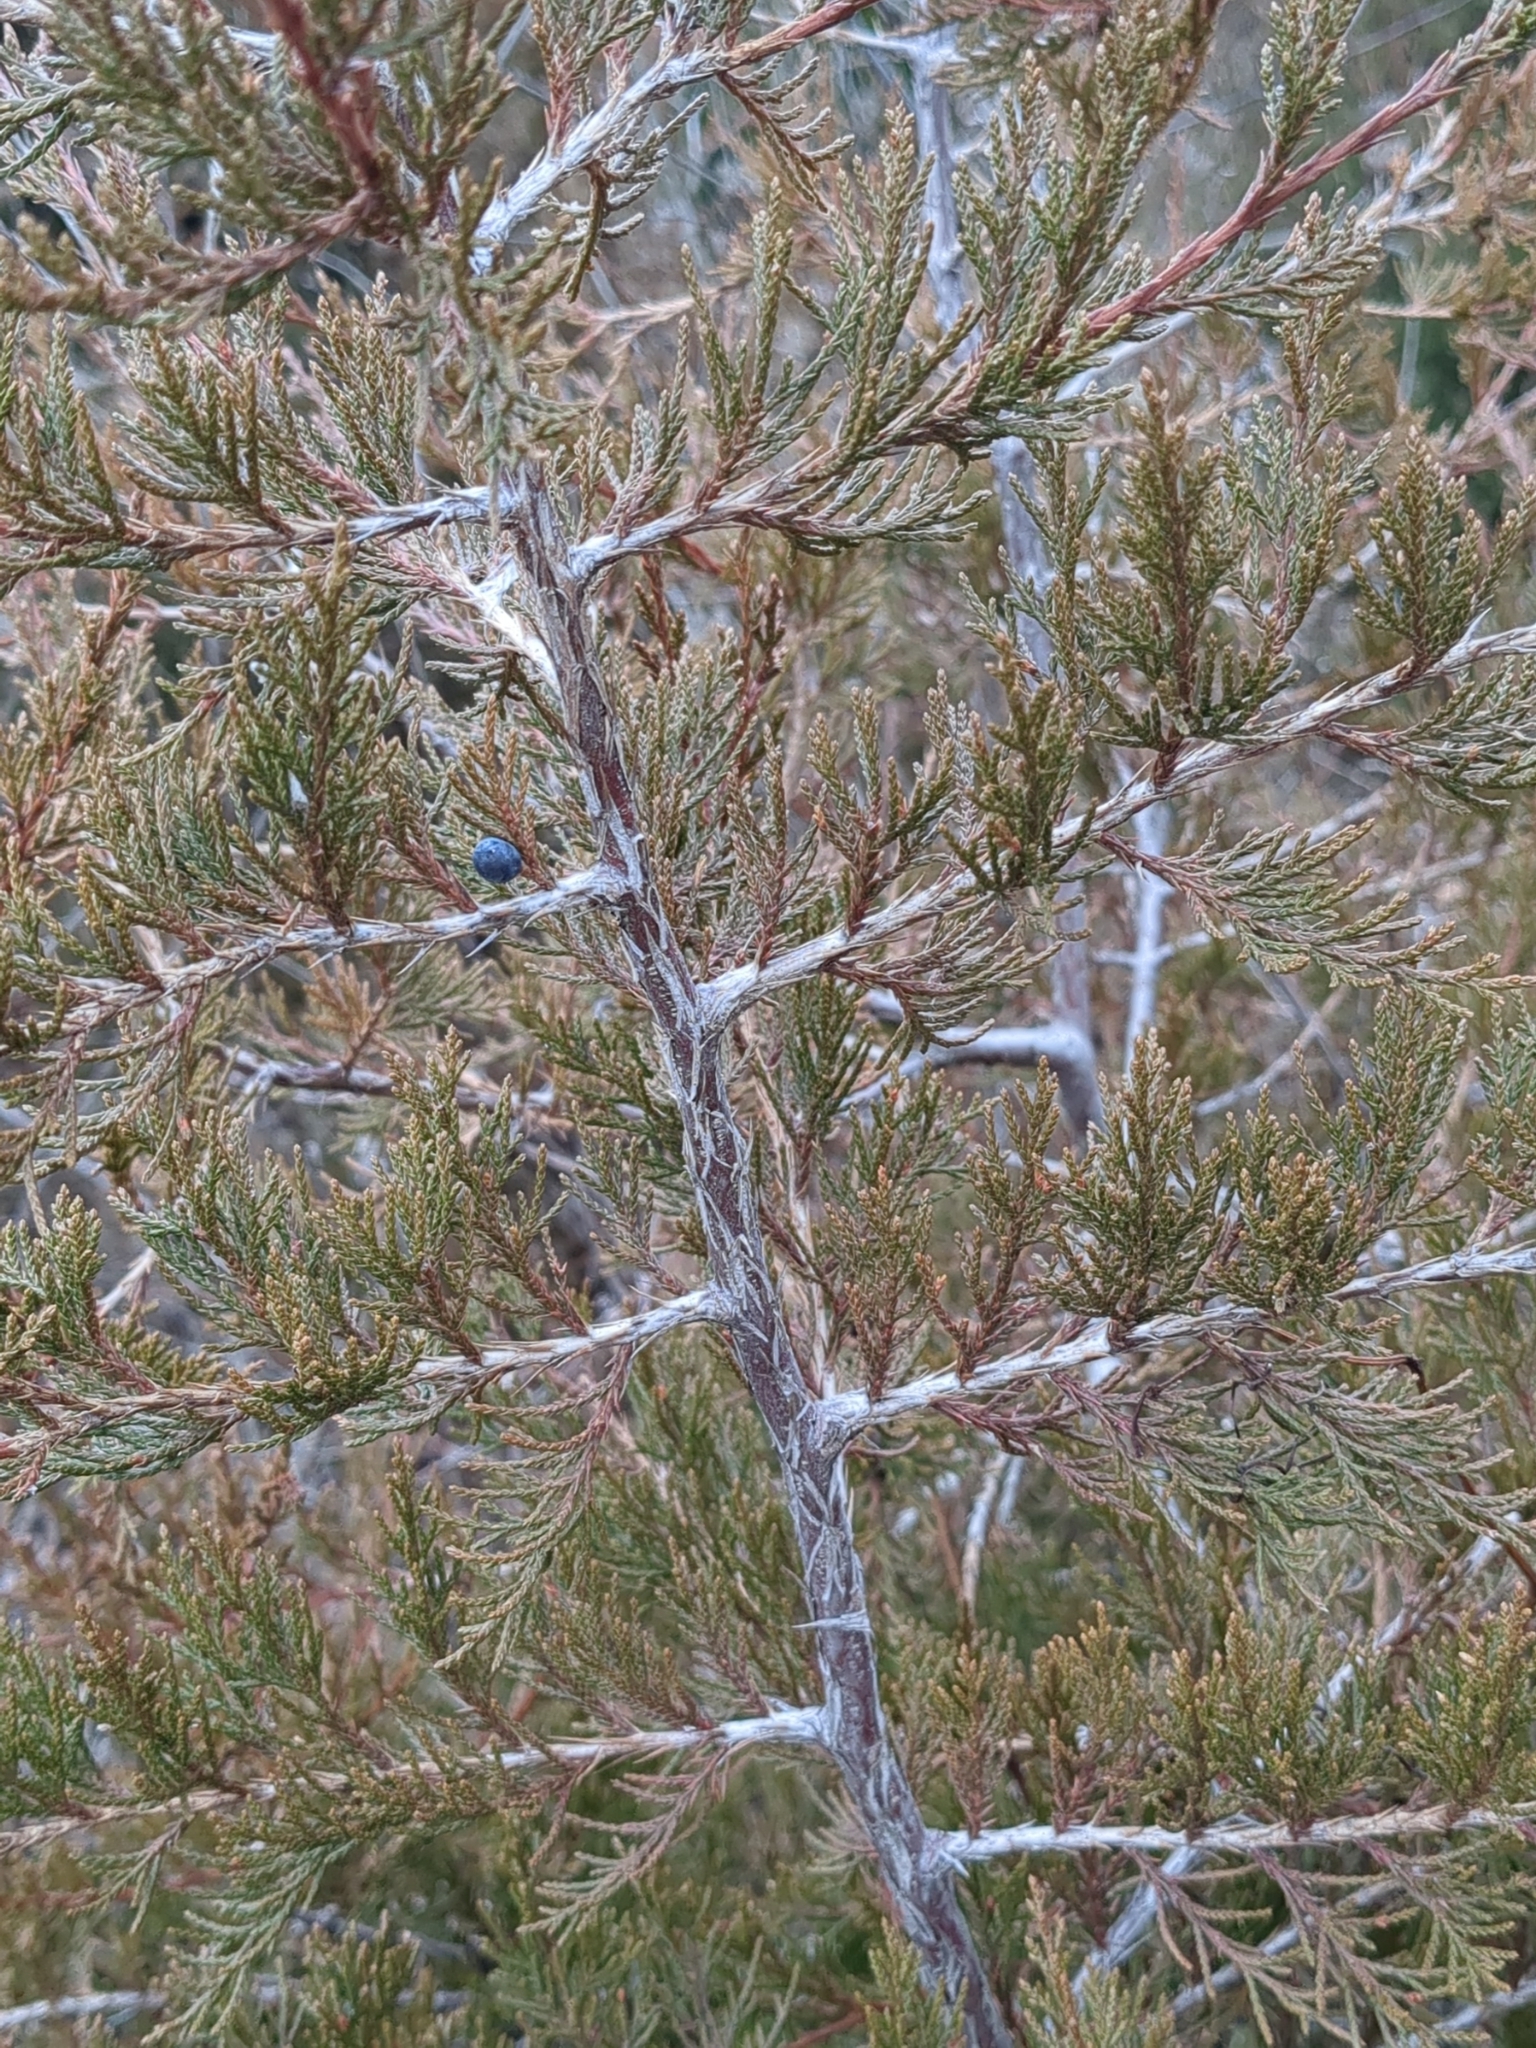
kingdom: Plantae
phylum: Tracheophyta
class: Pinopsida
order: Pinales
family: Cupressaceae
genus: Juniperus
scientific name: Juniperus virginiana
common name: Red juniper
